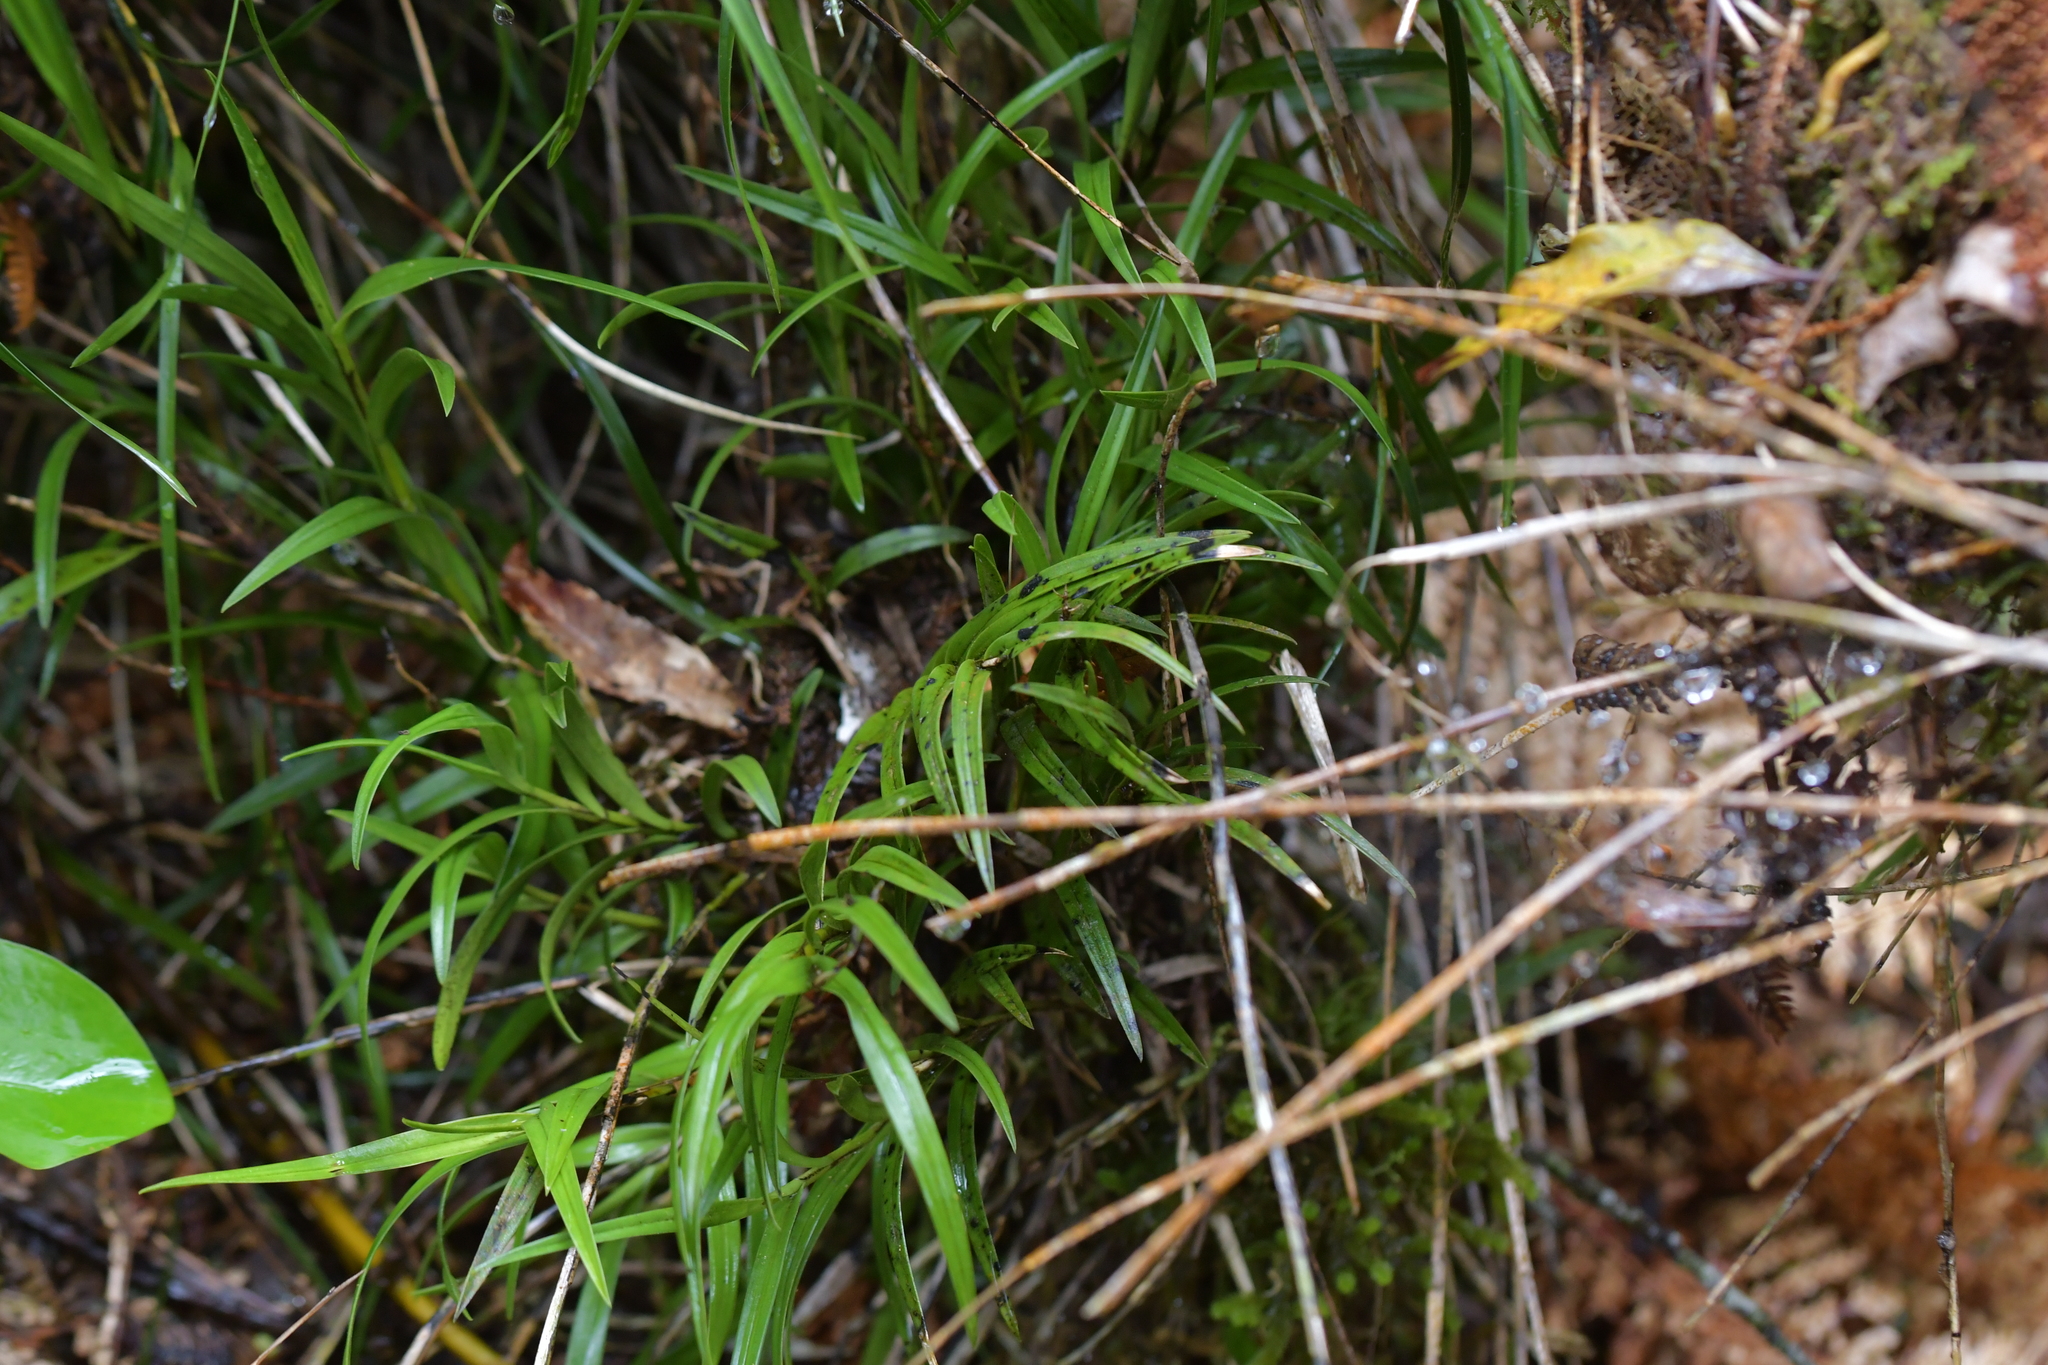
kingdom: Plantae
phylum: Tracheophyta
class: Liliopsida
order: Asparagales
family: Orchidaceae
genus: Earina
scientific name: Earina autumnalis
